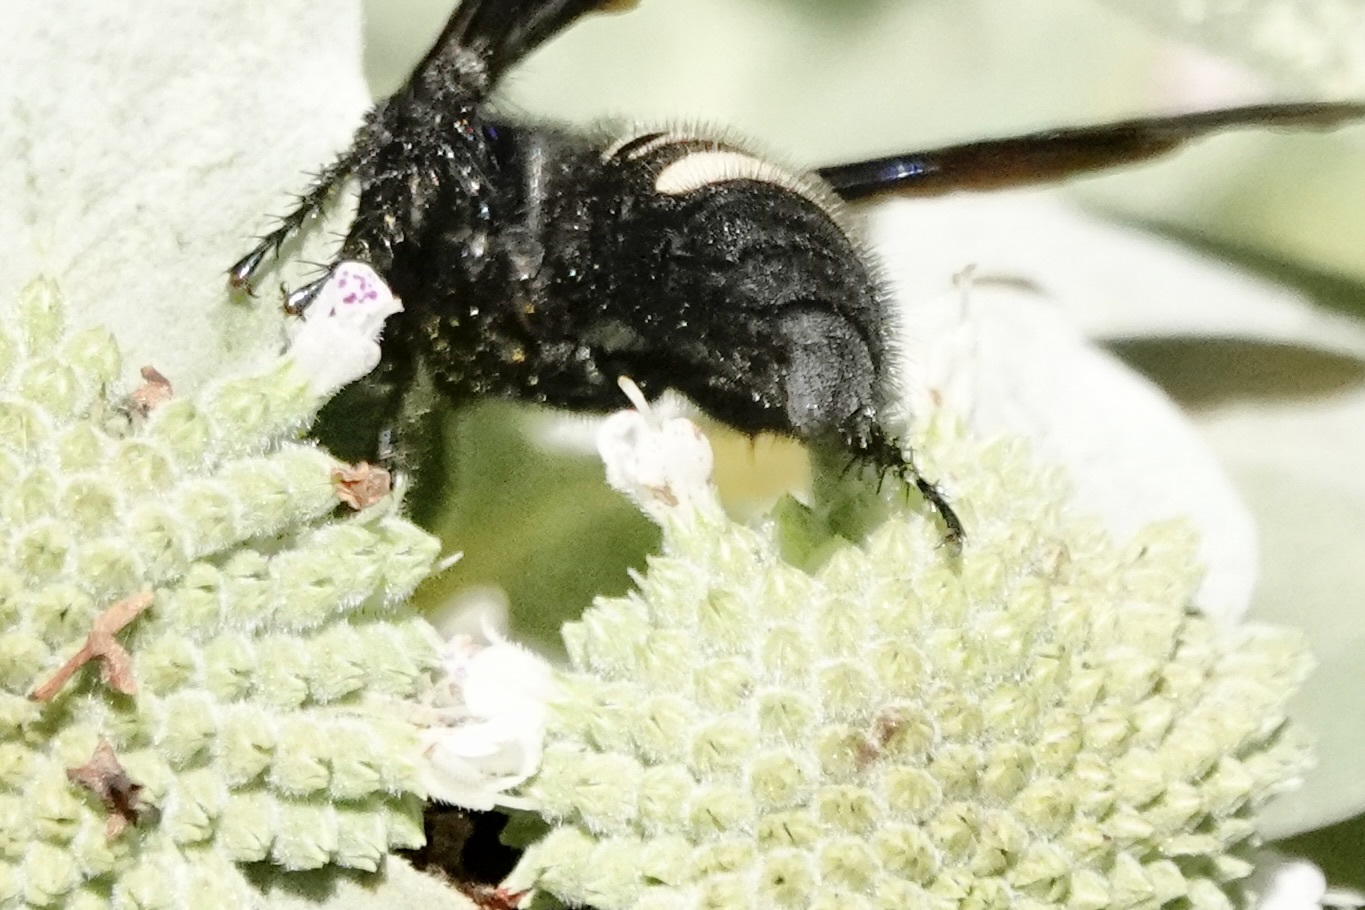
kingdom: Animalia
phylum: Arthropoda
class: Insecta
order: Hymenoptera
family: Scoliidae
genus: Scolia
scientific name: Scolia bicincta
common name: Double-banded scoliid wasp
